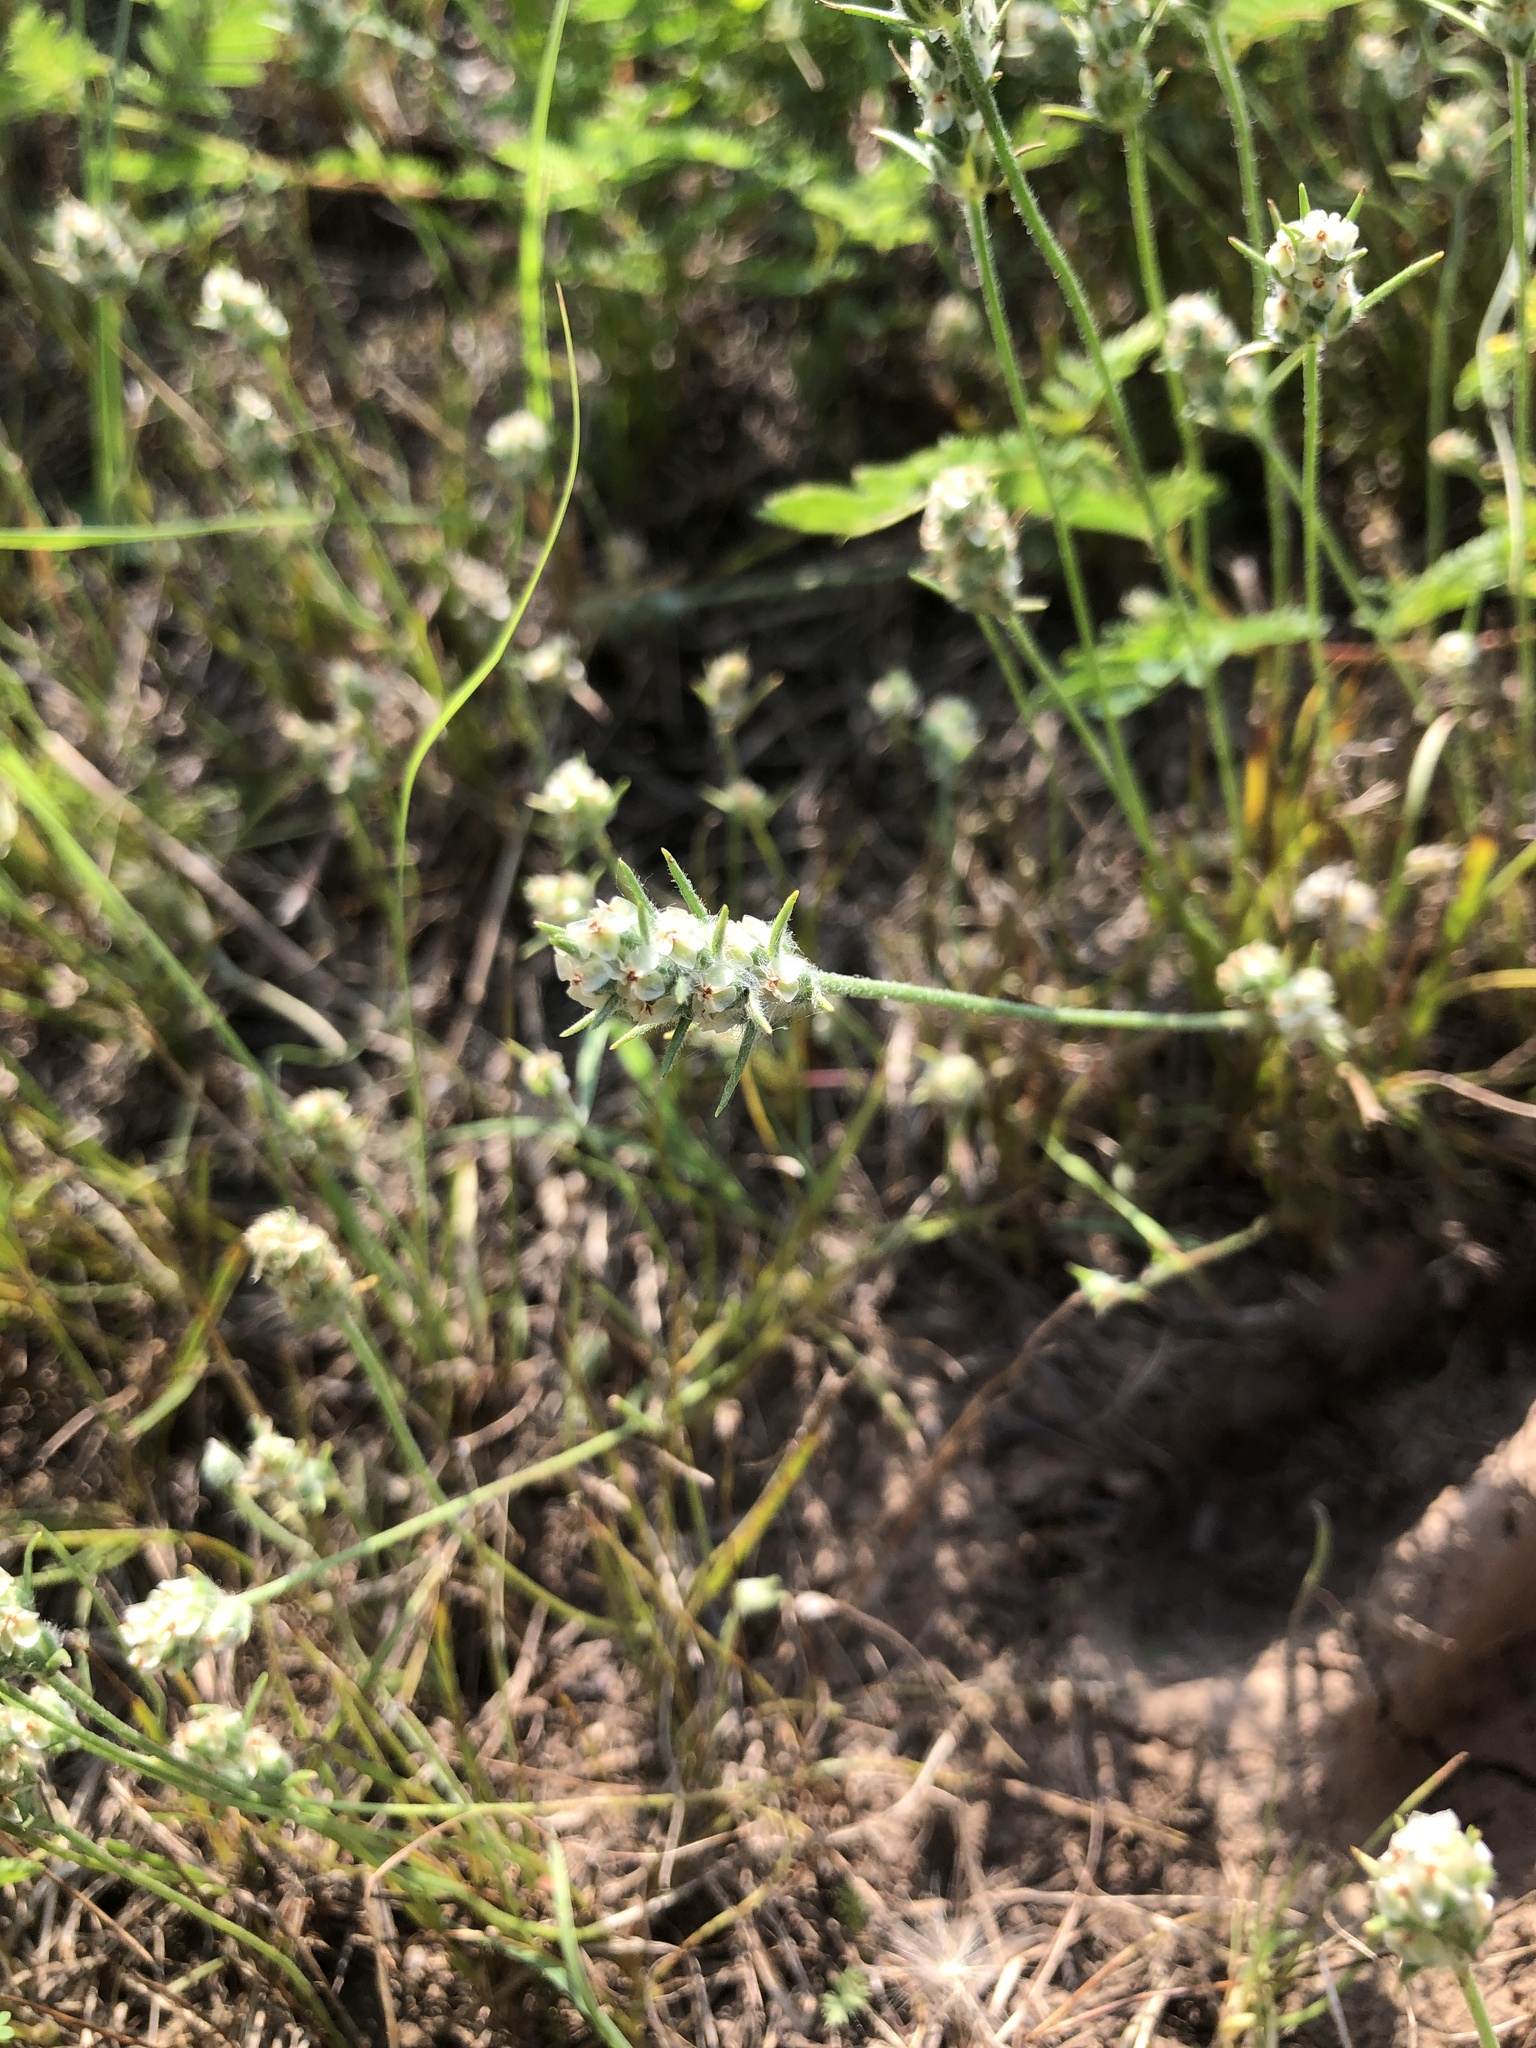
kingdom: Plantae
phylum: Tracheophyta
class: Magnoliopsida
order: Lamiales
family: Plantaginaceae
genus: Plantago
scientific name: Plantago aristata
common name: Bracted plantain
